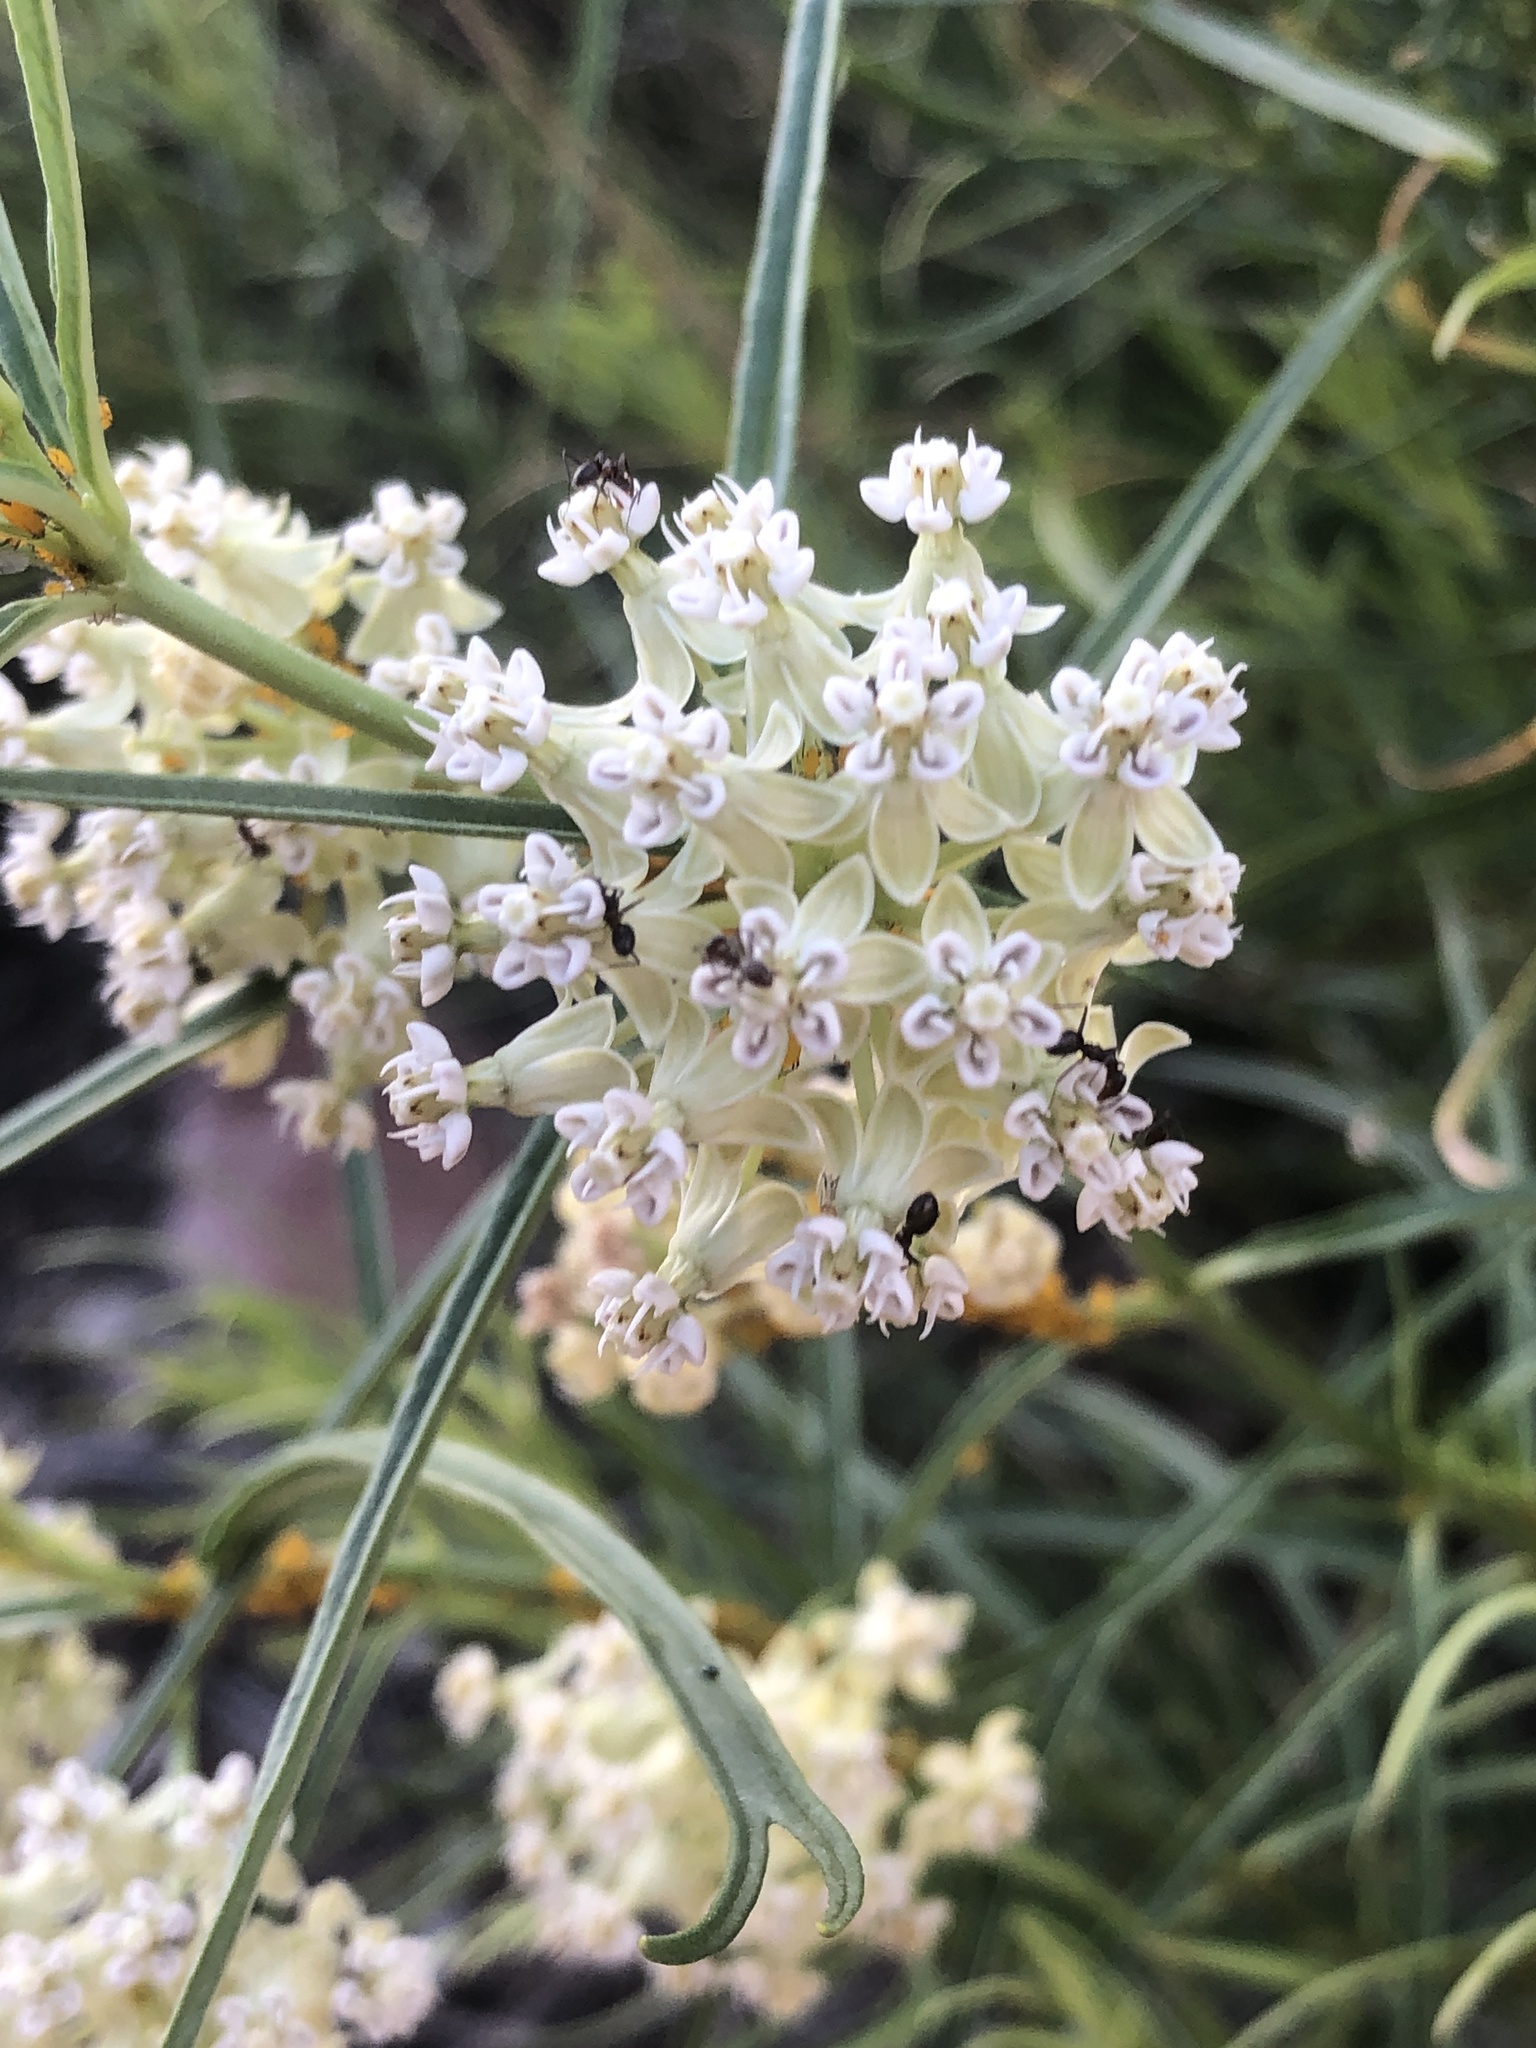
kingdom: Plantae
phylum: Tracheophyta
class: Magnoliopsida
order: Gentianales
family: Apocynaceae
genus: Asclepias
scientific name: Asclepias subverticillata
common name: Horsetail milkweed
